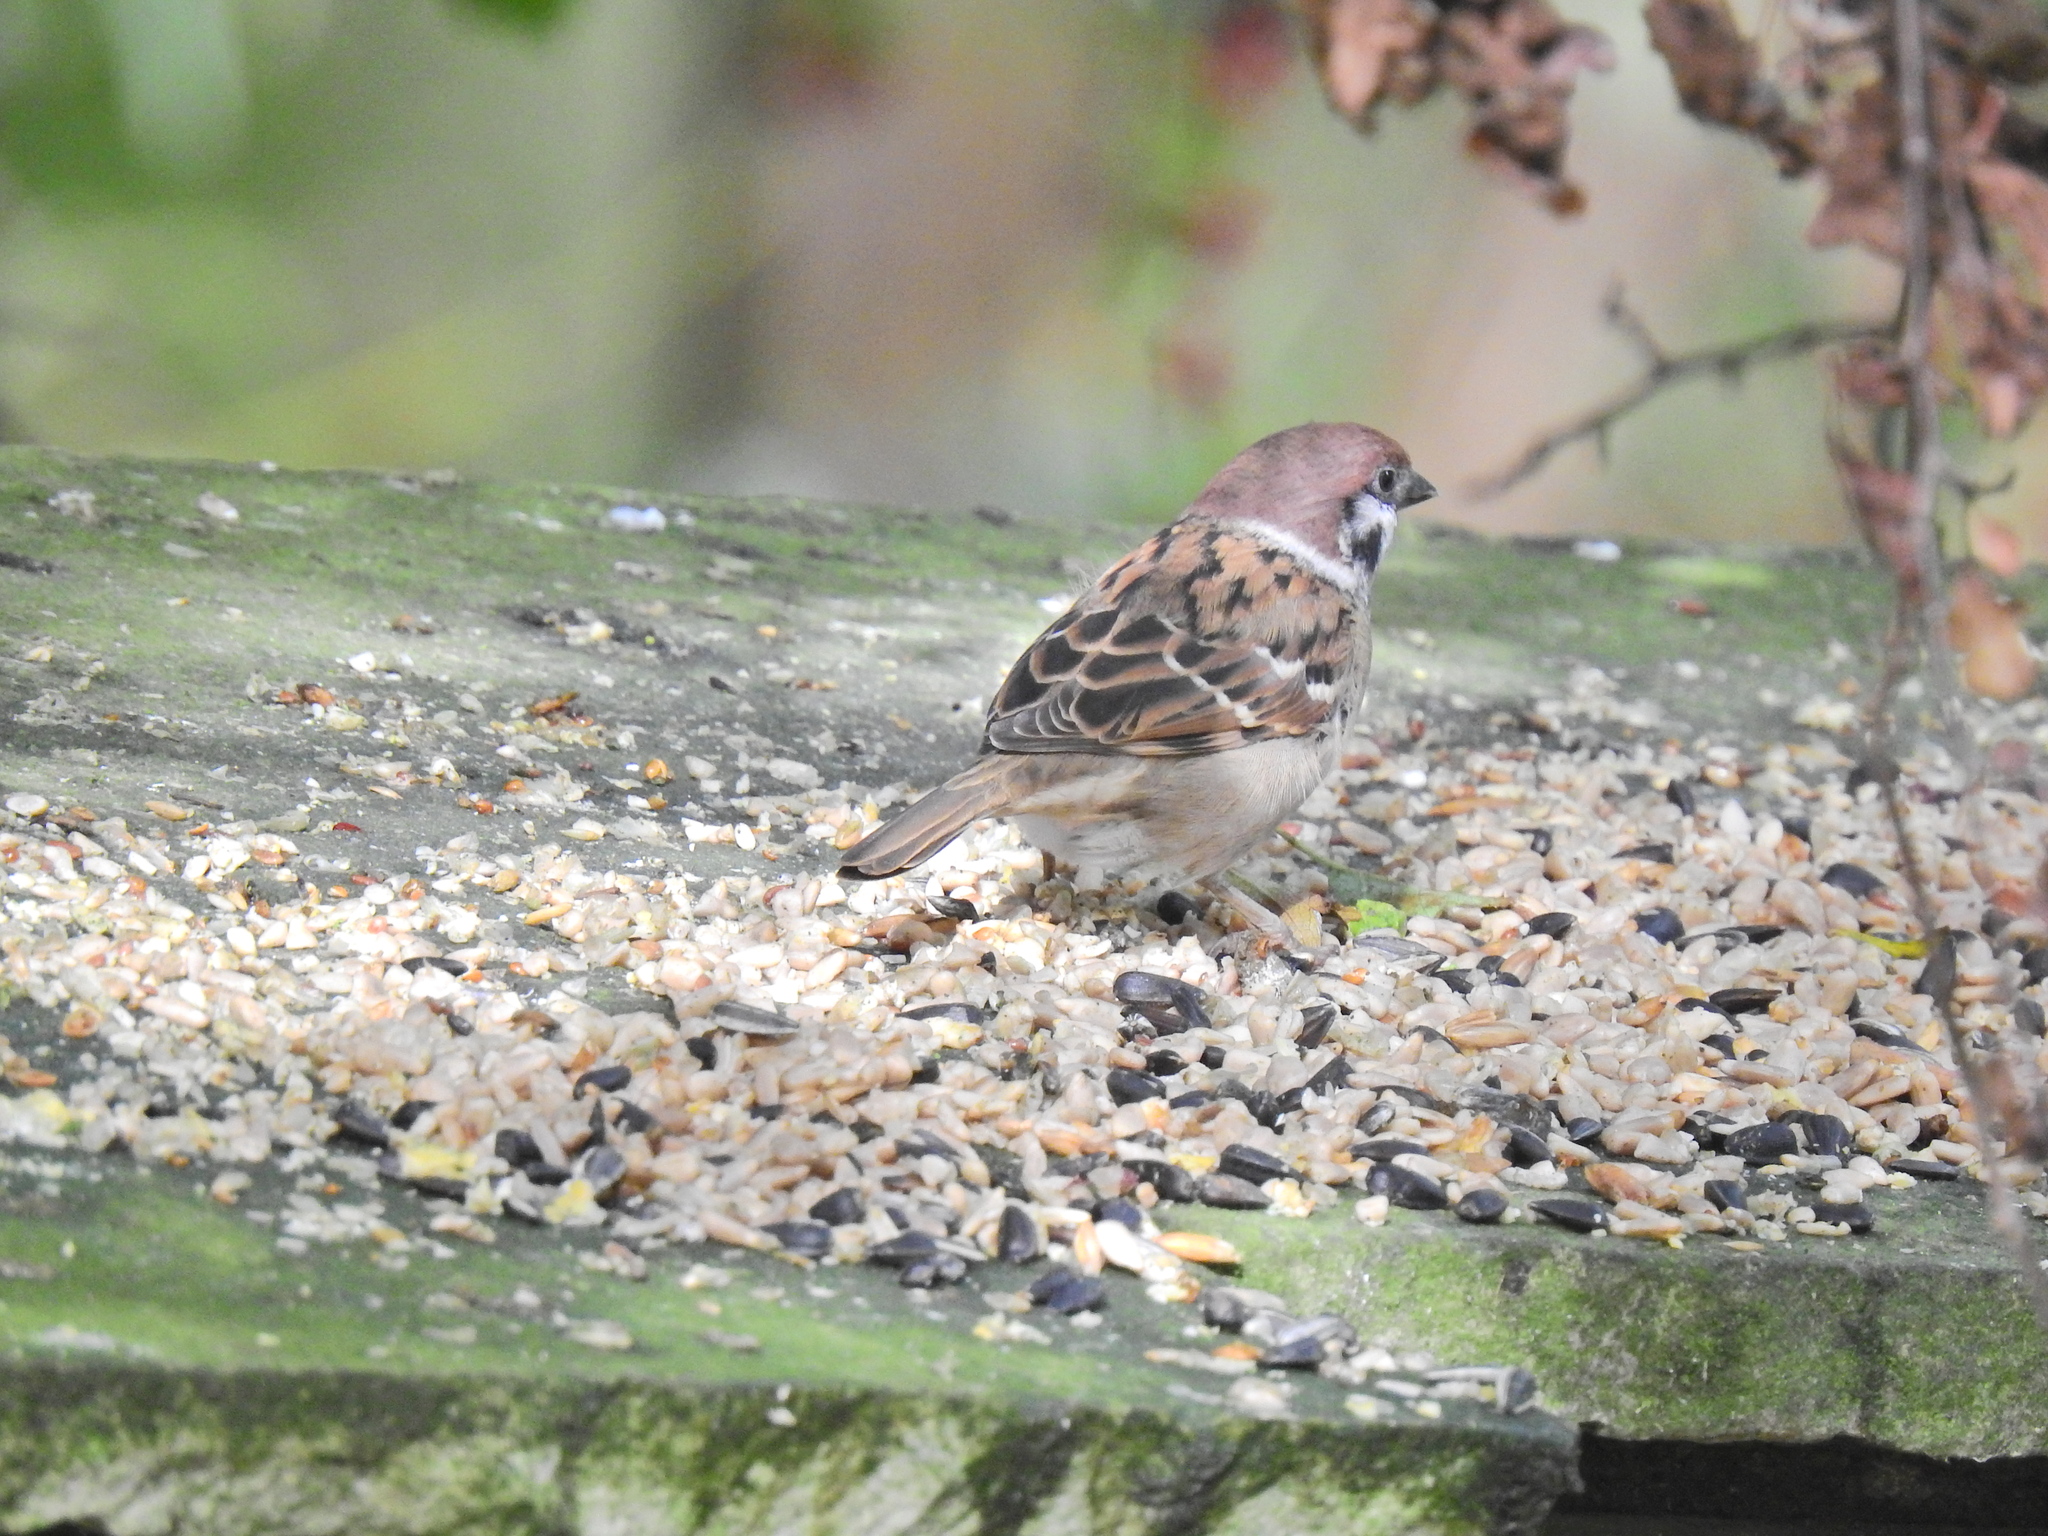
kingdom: Animalia
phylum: Chordata
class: Aves
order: Passeriformes
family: Passeridae
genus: Passer
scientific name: Passer montanus
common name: Eurasian tree sparrow
